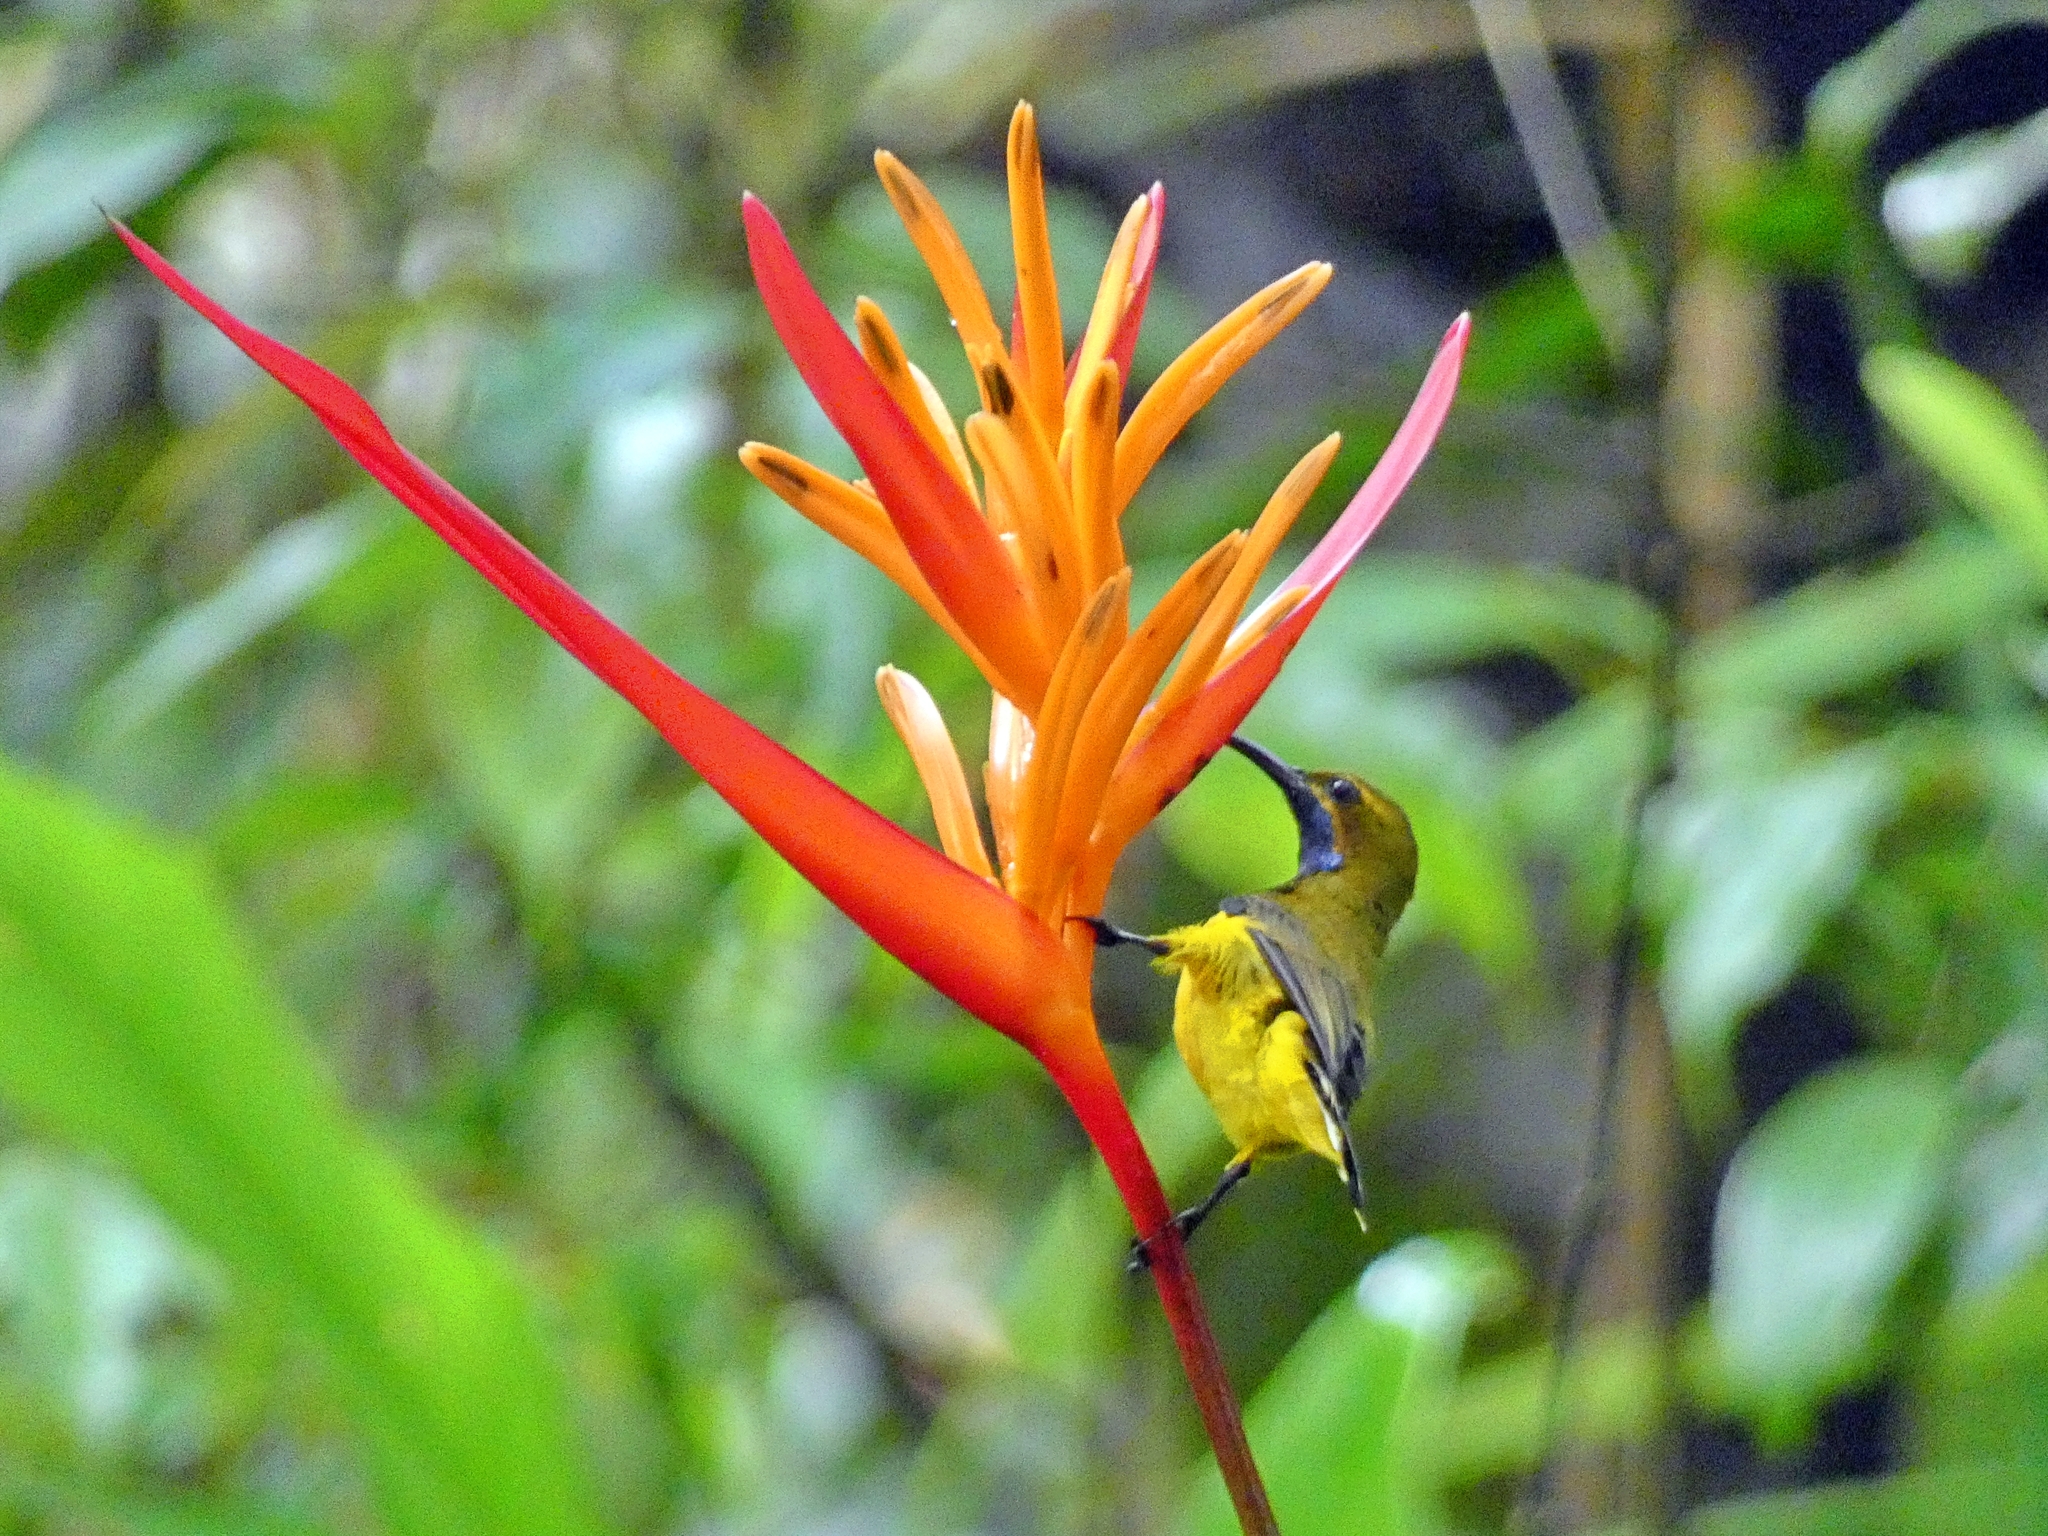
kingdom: Animalia
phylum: Chordata
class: Aves
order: Passeriformes
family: Nectariniidae
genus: Cinnyris
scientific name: Cinnyris
